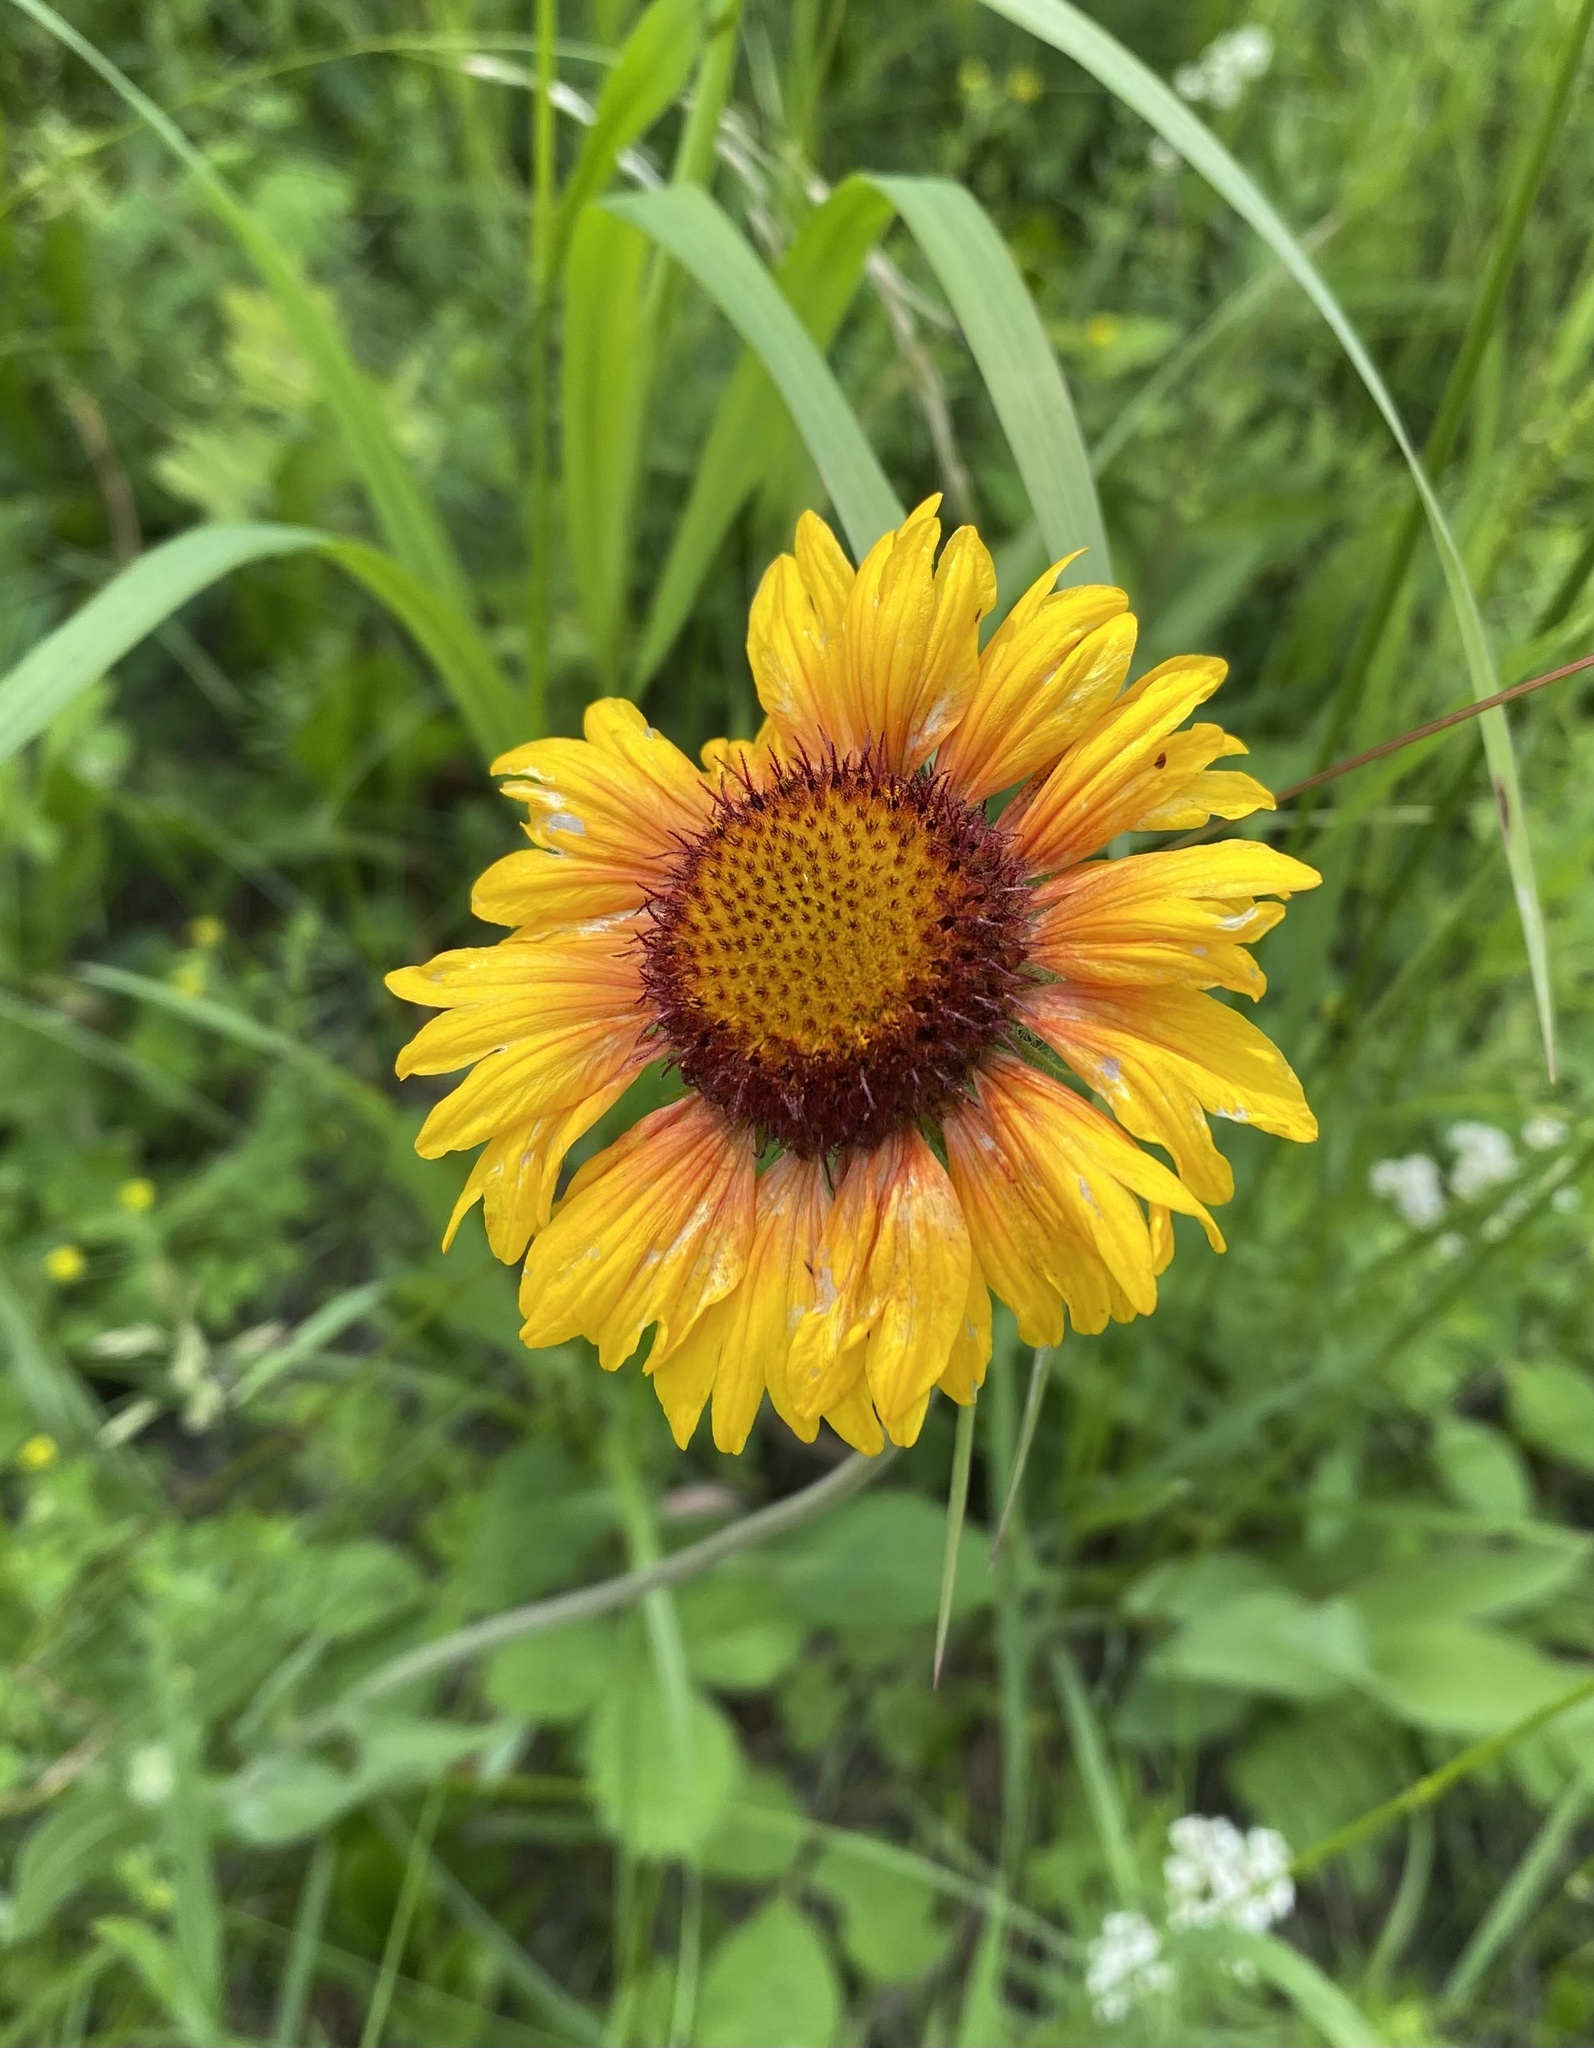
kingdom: Plantae
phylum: Tracheophyta
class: Magnoliopsida
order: Asterales
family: Asteraceae
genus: Gaillardia
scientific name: Gaillardia aristata
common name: Blanket-flower
